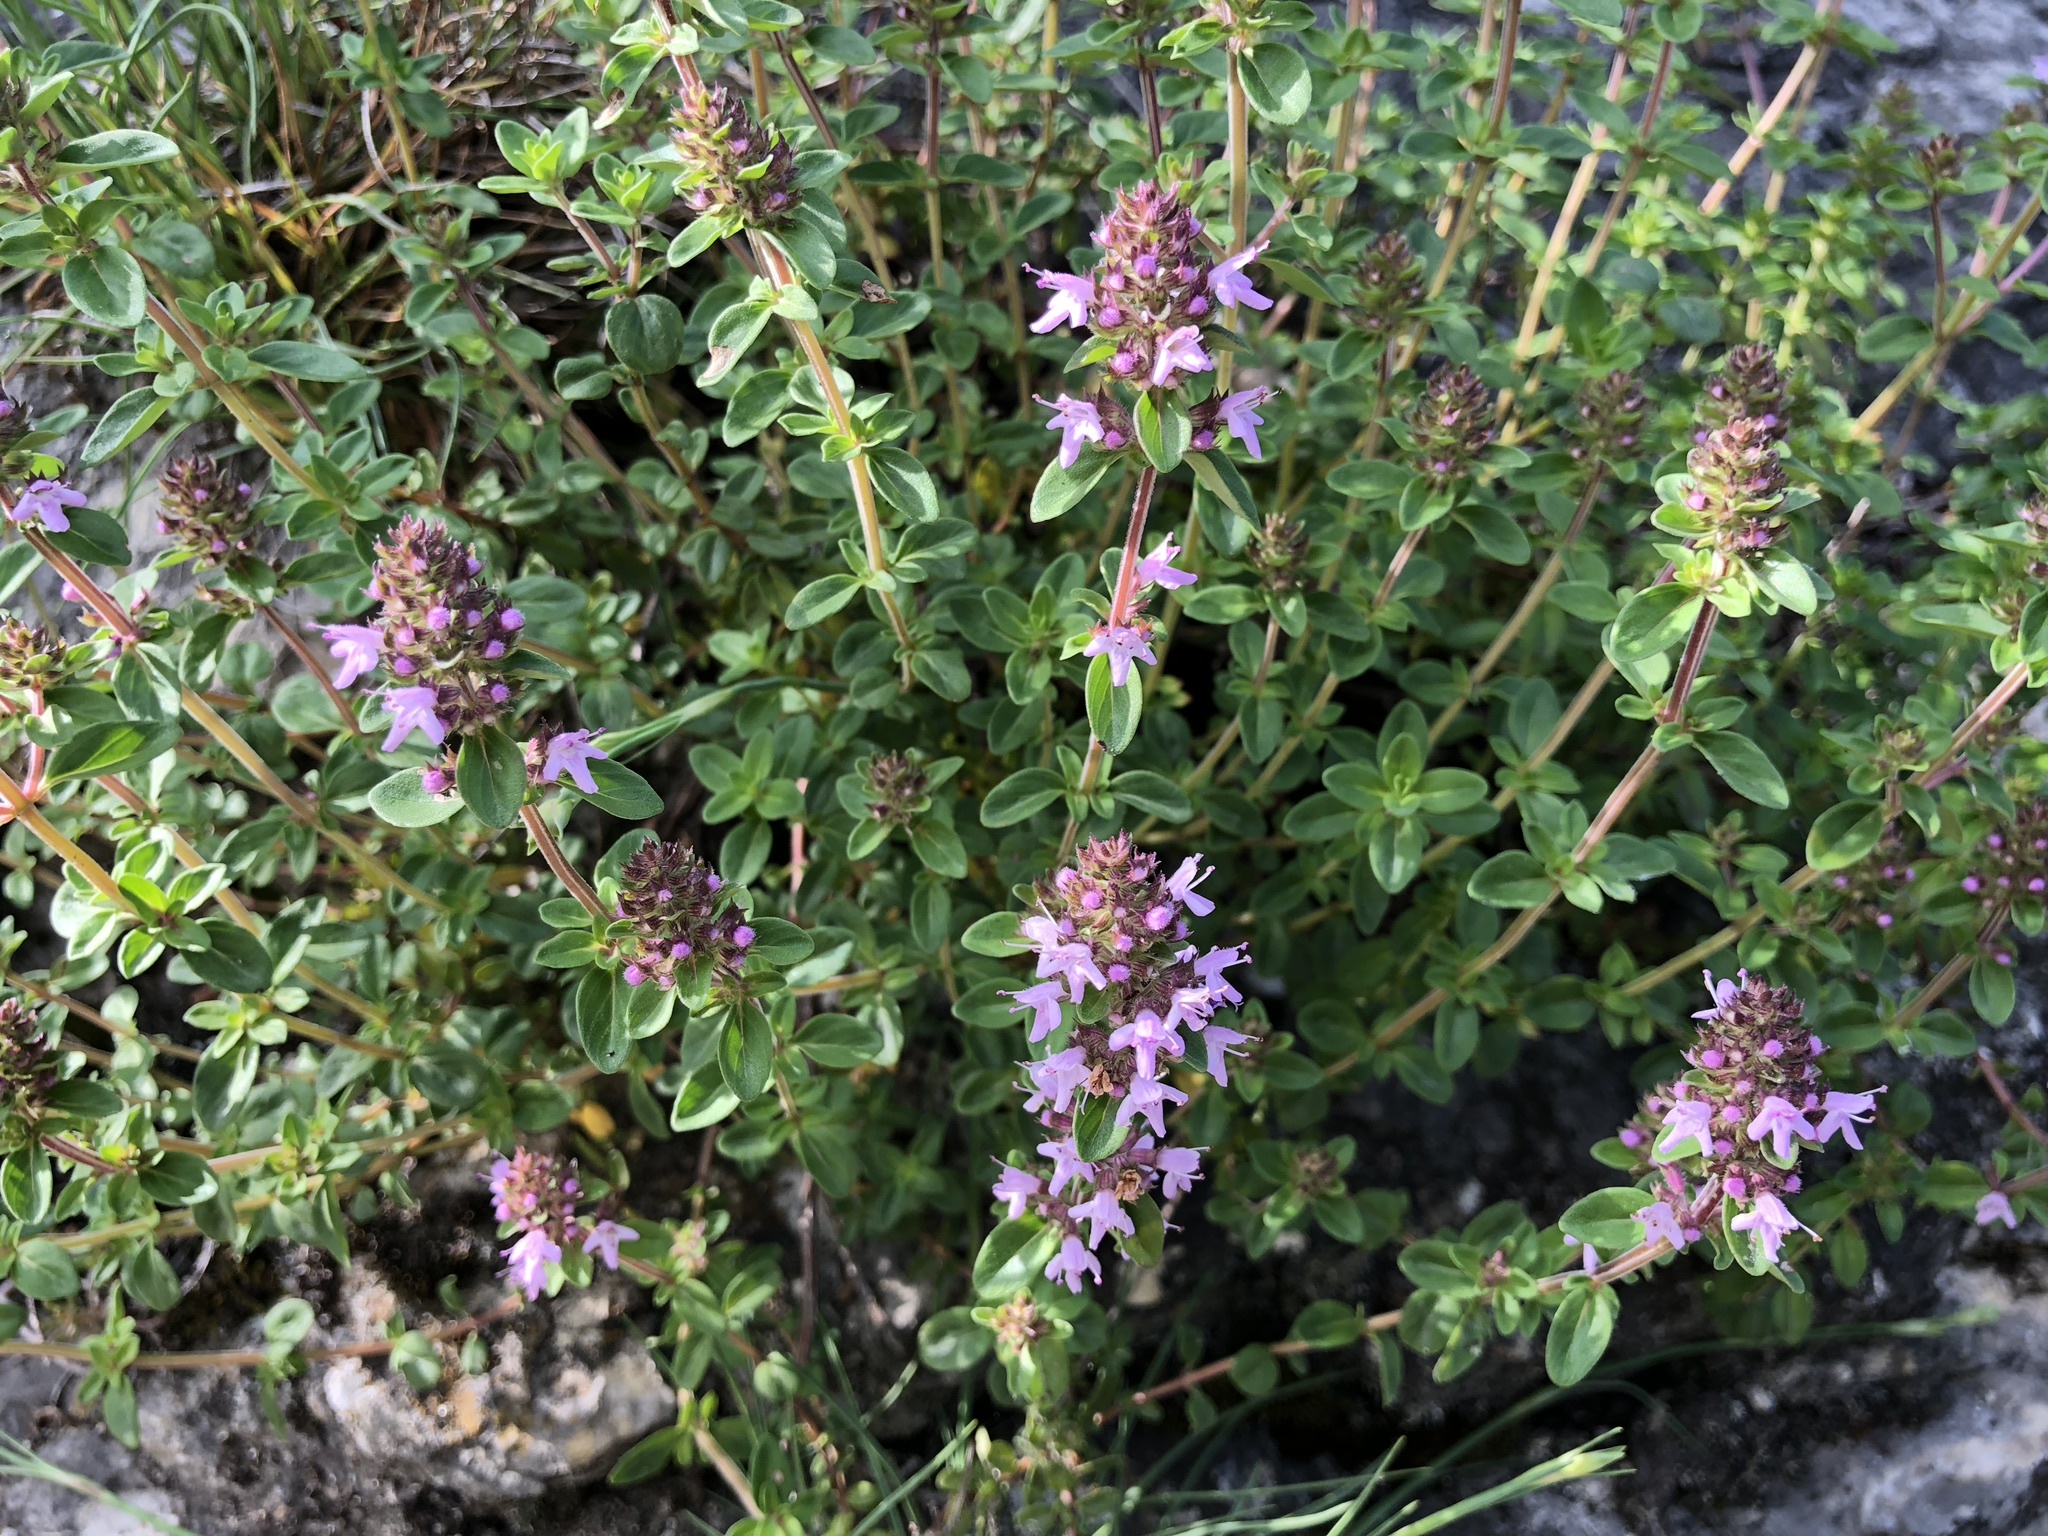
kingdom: Plantae
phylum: Tracheophyta
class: Magnoliopsida
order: Lamiales
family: Lamiaceae
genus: Thymus
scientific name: Thymus pulegioides
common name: Large thyme
